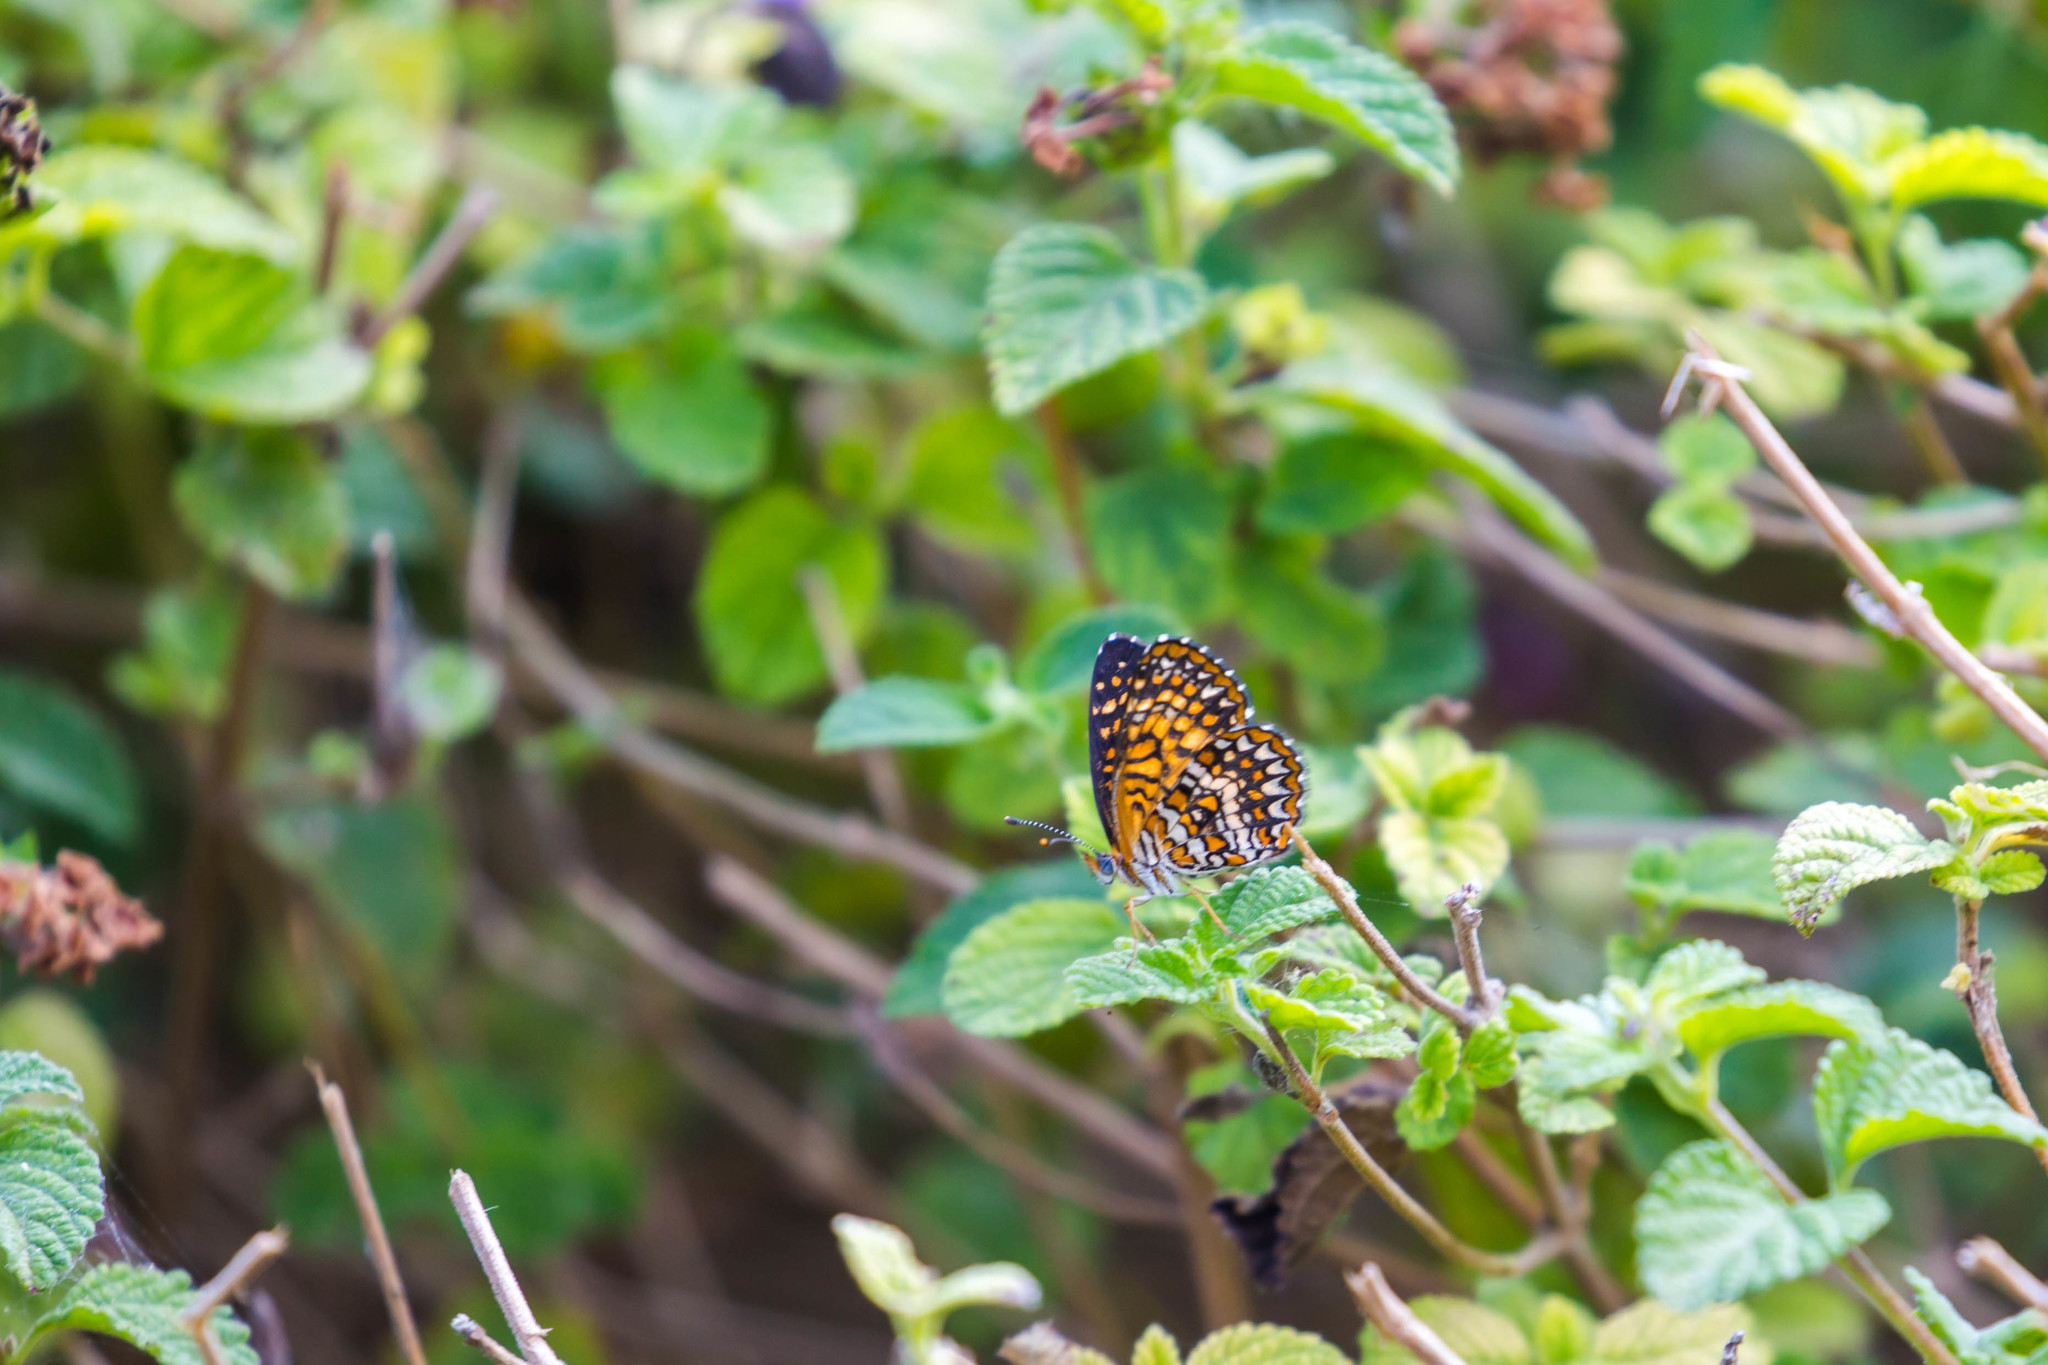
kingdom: Animalia
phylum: Arthropoda
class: Insecta
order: Lepidoptera
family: Nymphalidae
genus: Texola
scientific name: Texola elada
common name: Elada checkerspot
